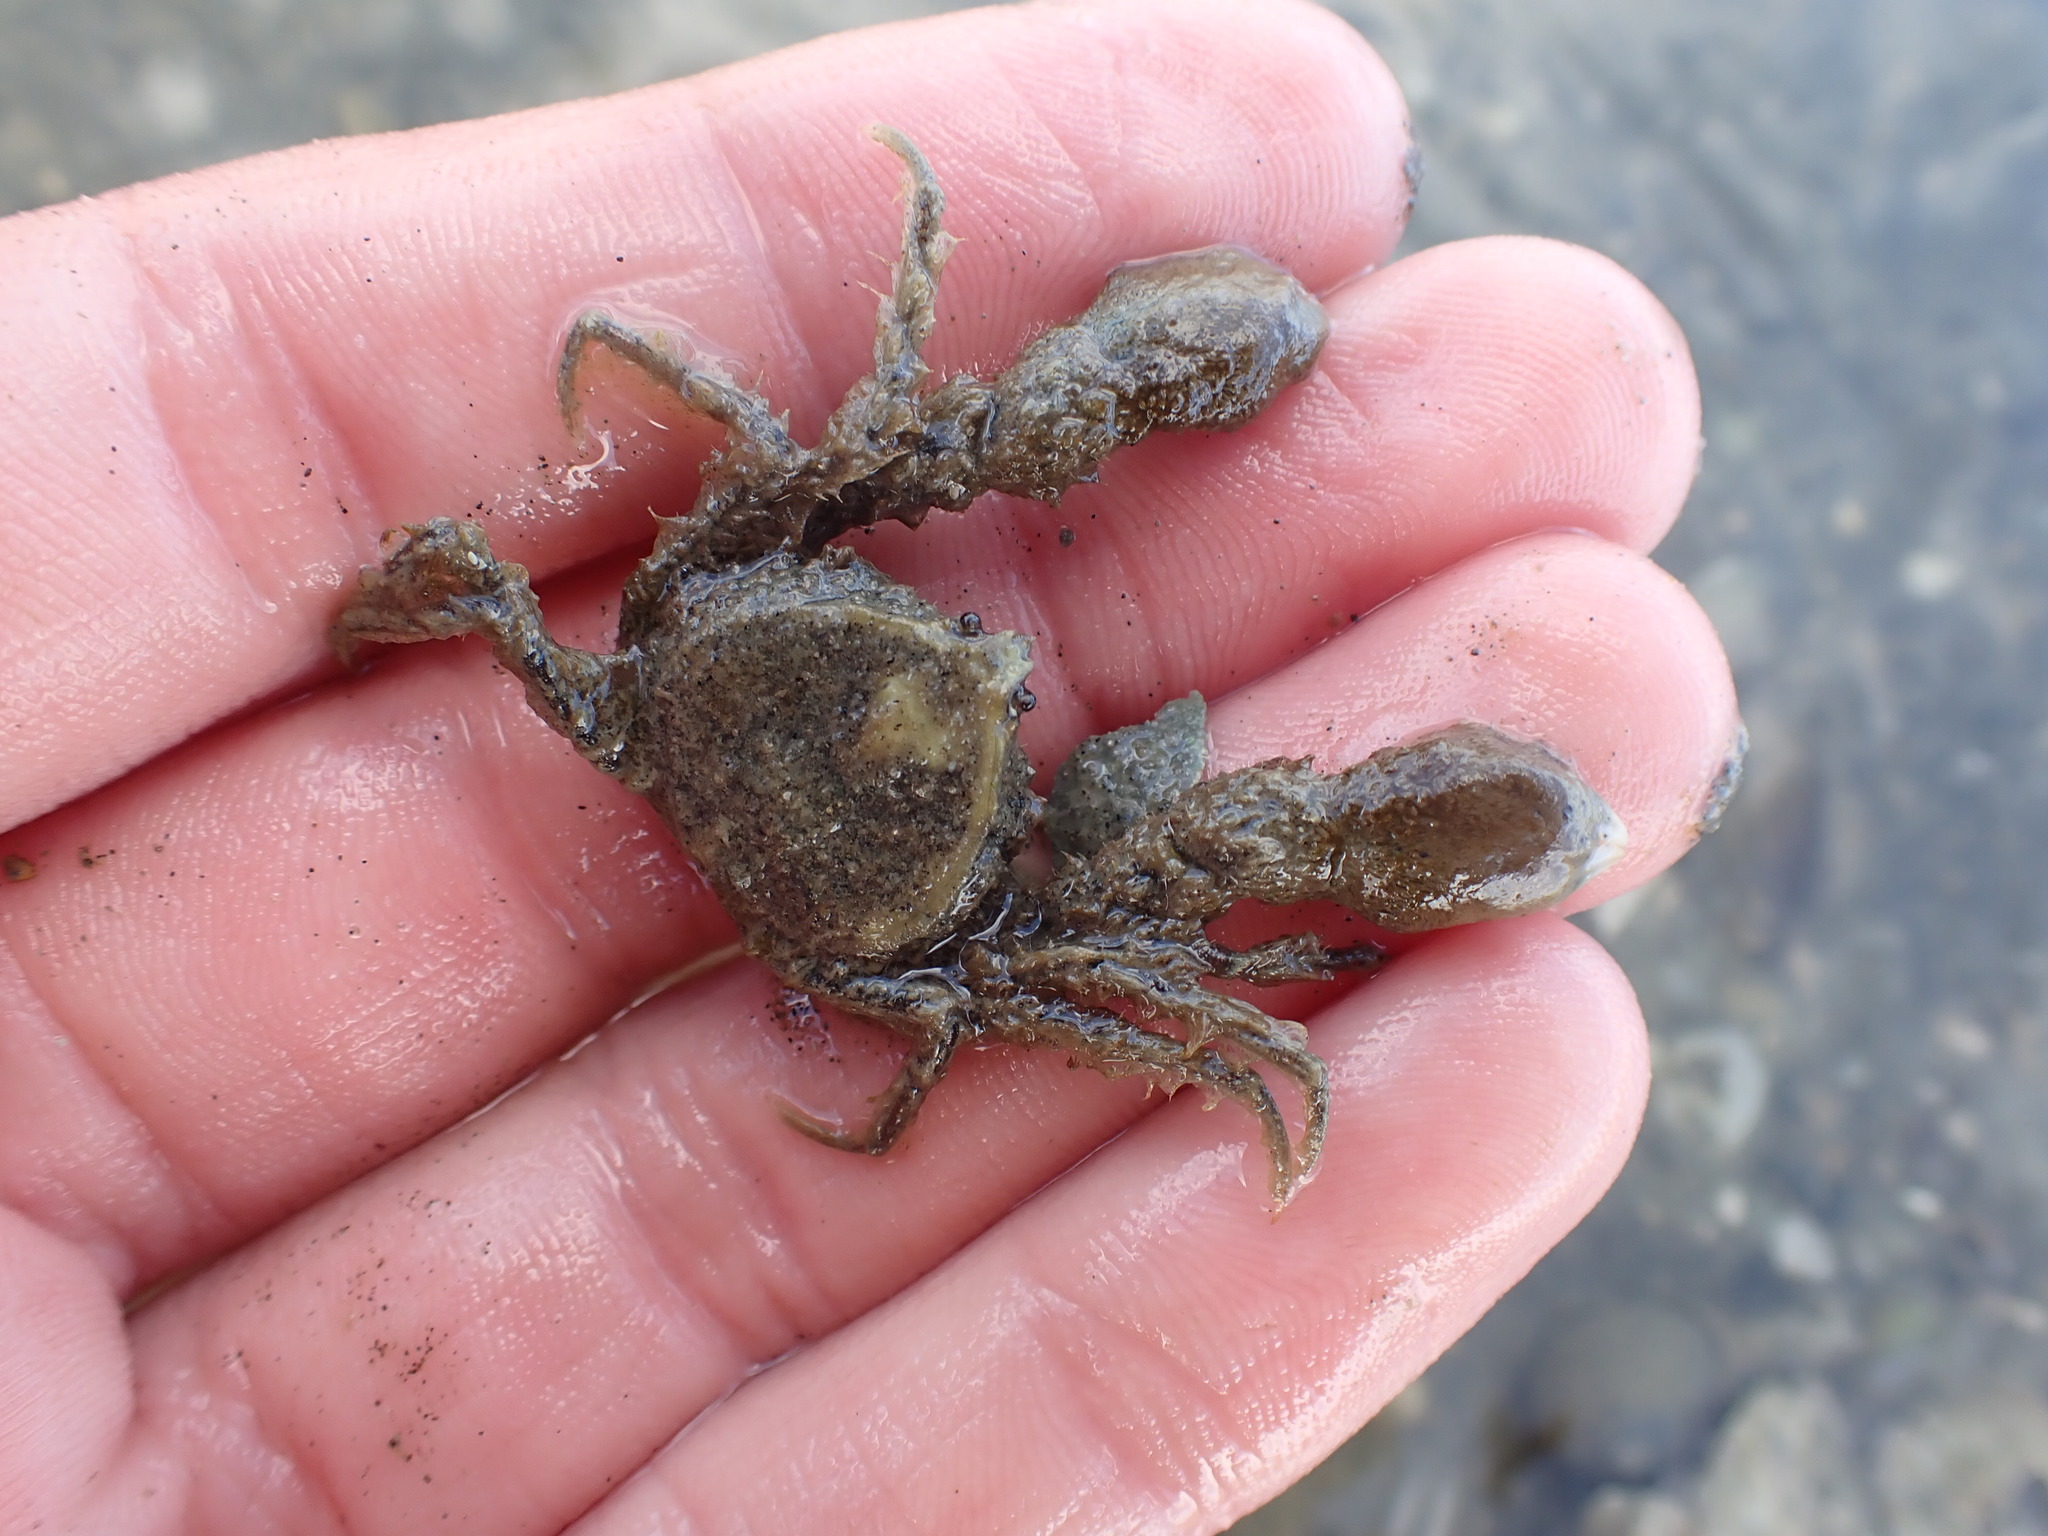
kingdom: Animalia
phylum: Arthropoda
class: Malacostraca
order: Decapoda
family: Hymenosomatidae
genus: Halicarcinus
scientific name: Halicarcinus whitei
